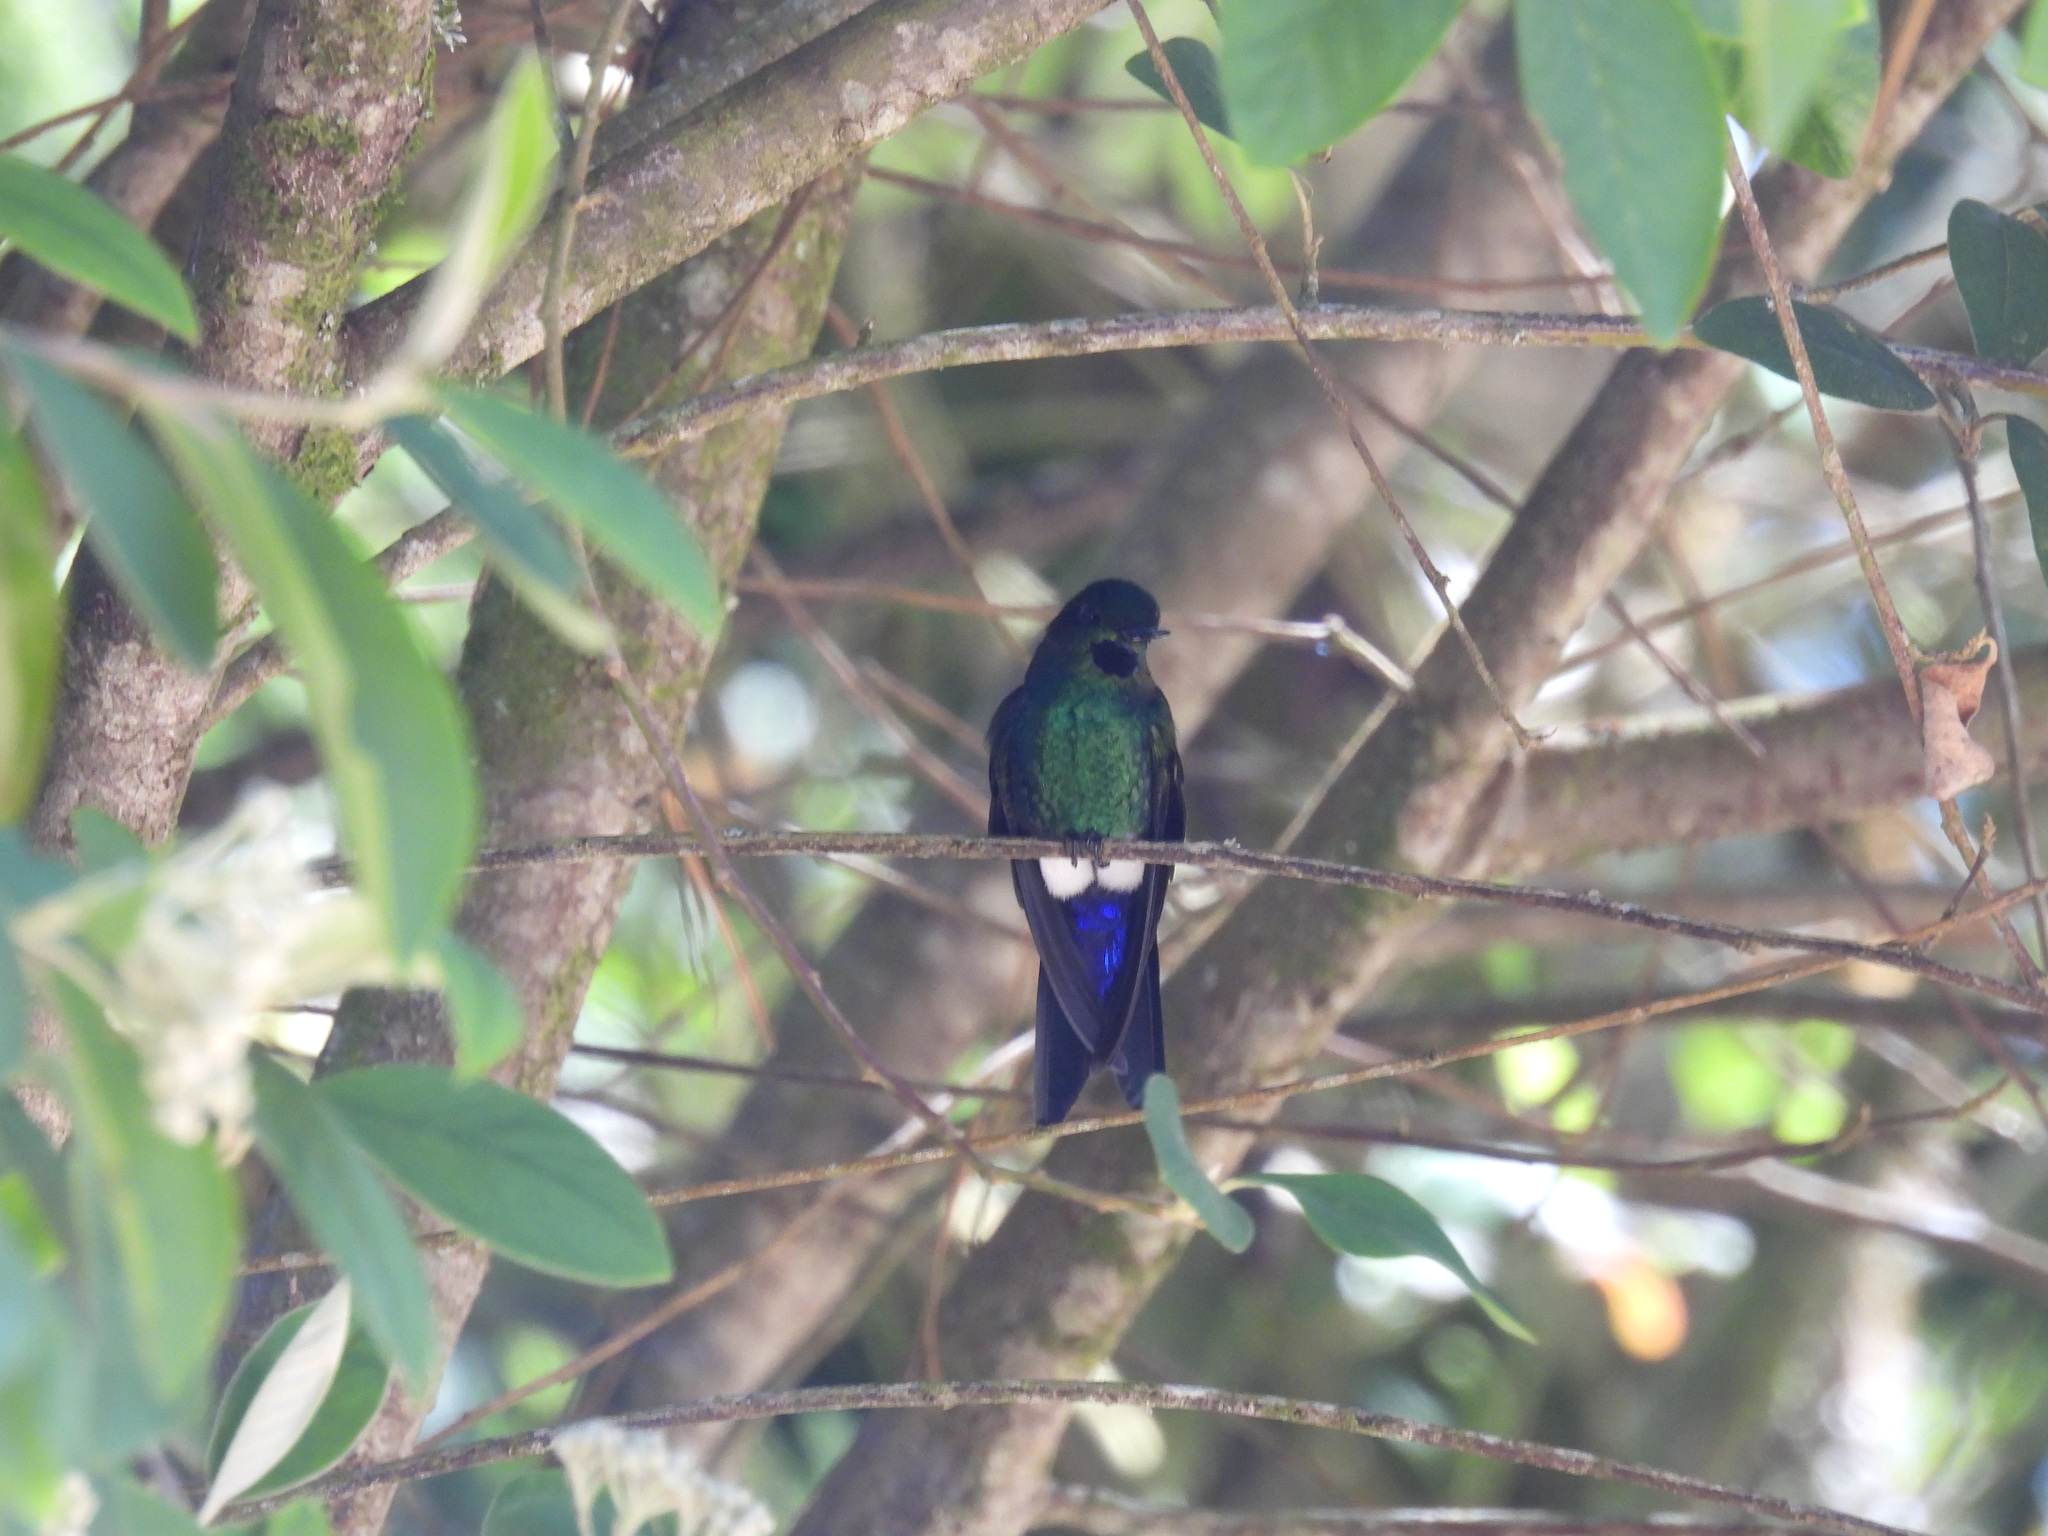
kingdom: Animalia
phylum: Chordata
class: Aves
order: Apodiformes
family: Trochilidae
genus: Eriocnemis
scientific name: Eriocnemis vestita
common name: Glowing puffleg
